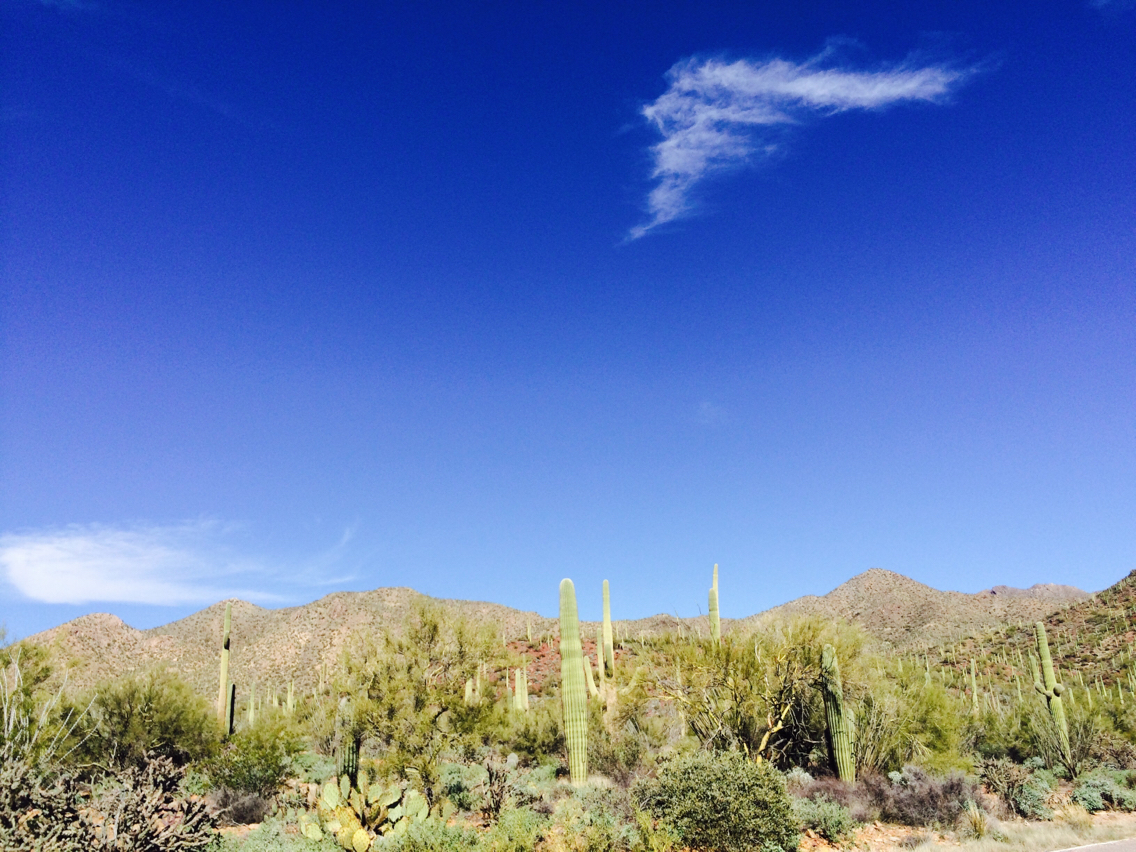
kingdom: Plantae
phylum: Tracheophyta
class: Magnoliopsida
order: Caryophyllales
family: Cactaceae
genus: Carnegiea
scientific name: Carnegiea gigantea
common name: Saguaro
